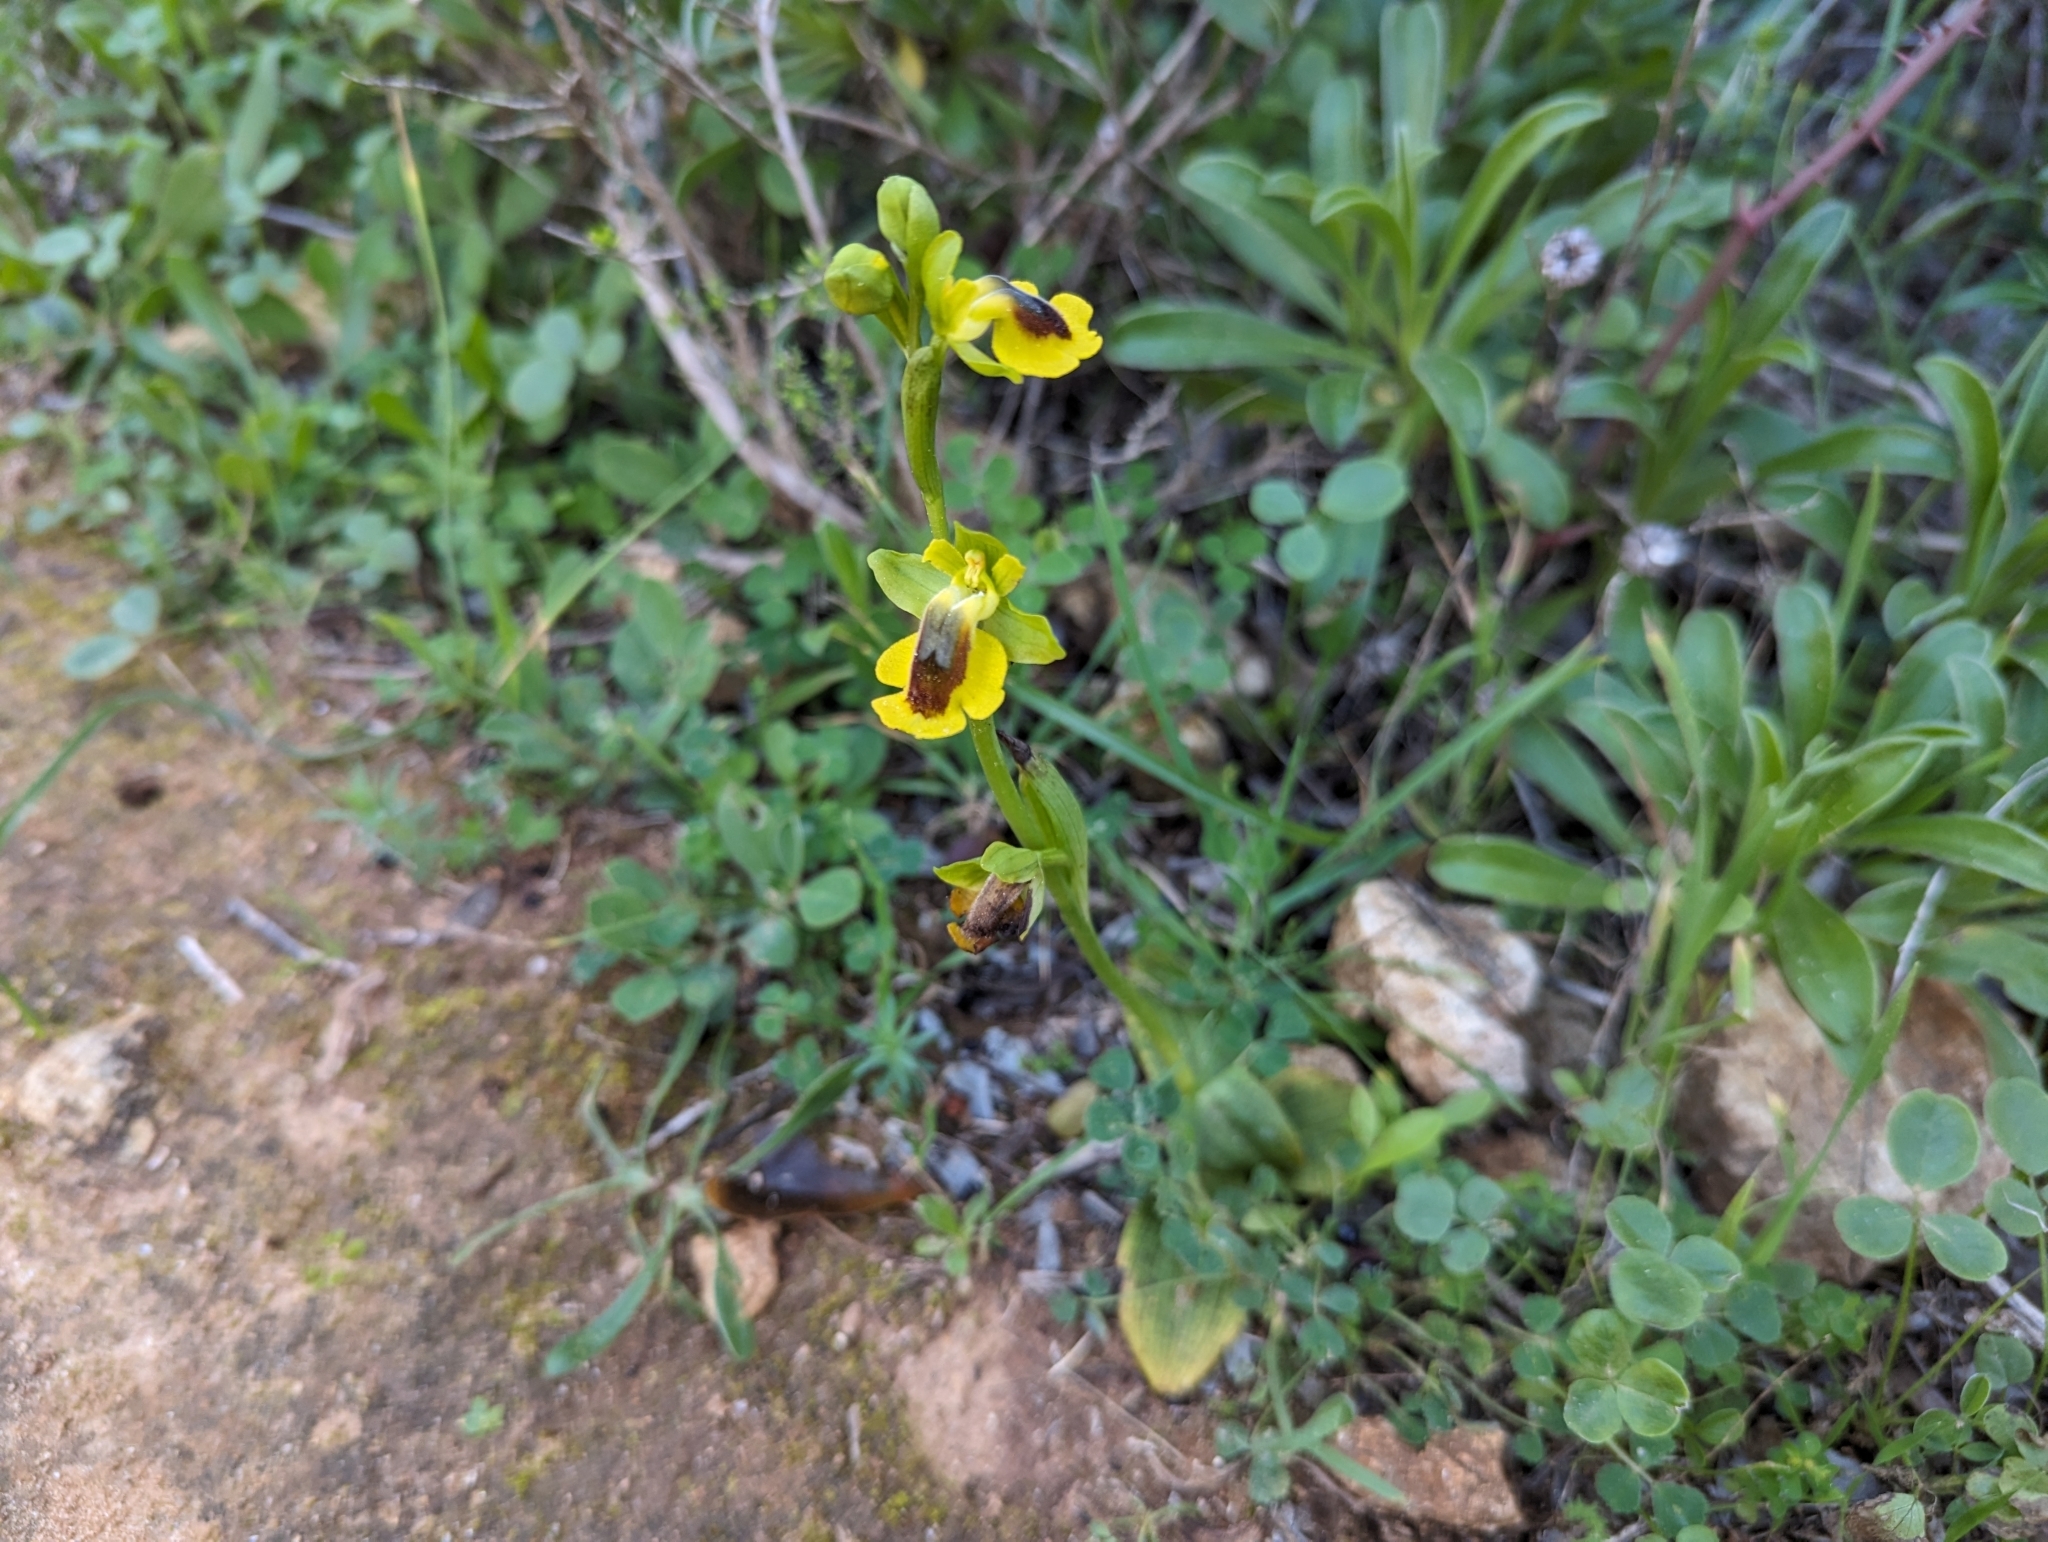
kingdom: Plantae
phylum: Tracheophyta
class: Liliopsida
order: Asparagales
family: Orchidaceae
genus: Ophrys
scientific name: Ophrys lutea
